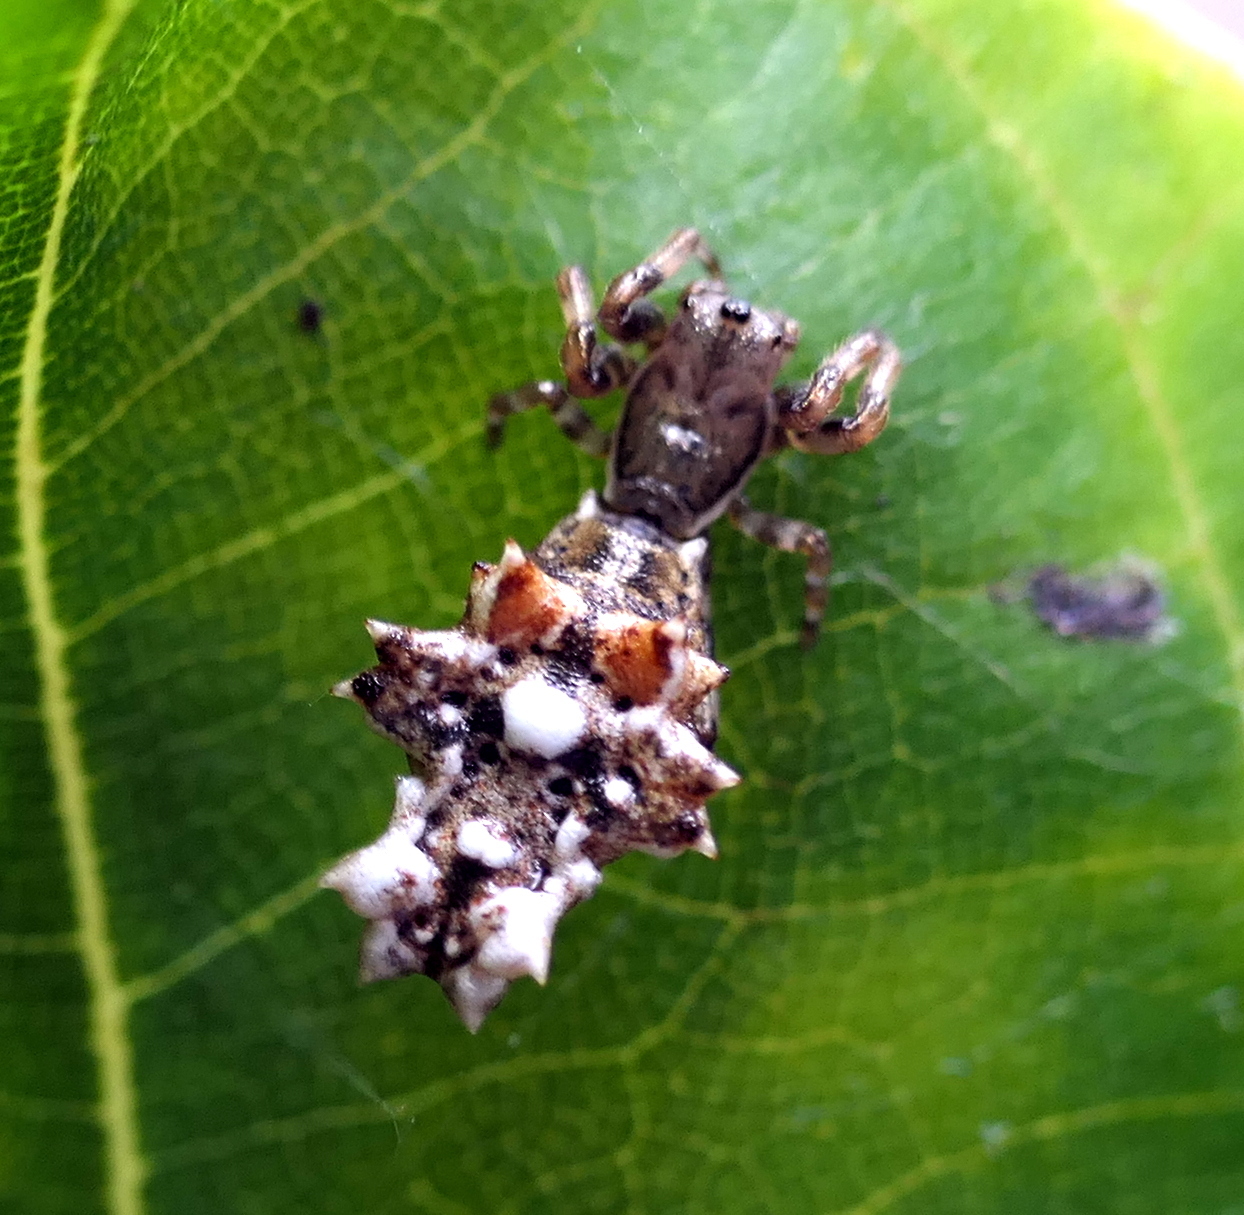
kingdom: Animalia
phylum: Arthropoda
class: Arachnida
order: Araneae
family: Araneidae
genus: Micrathena
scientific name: Micrathena horrida
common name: Orb weavers
